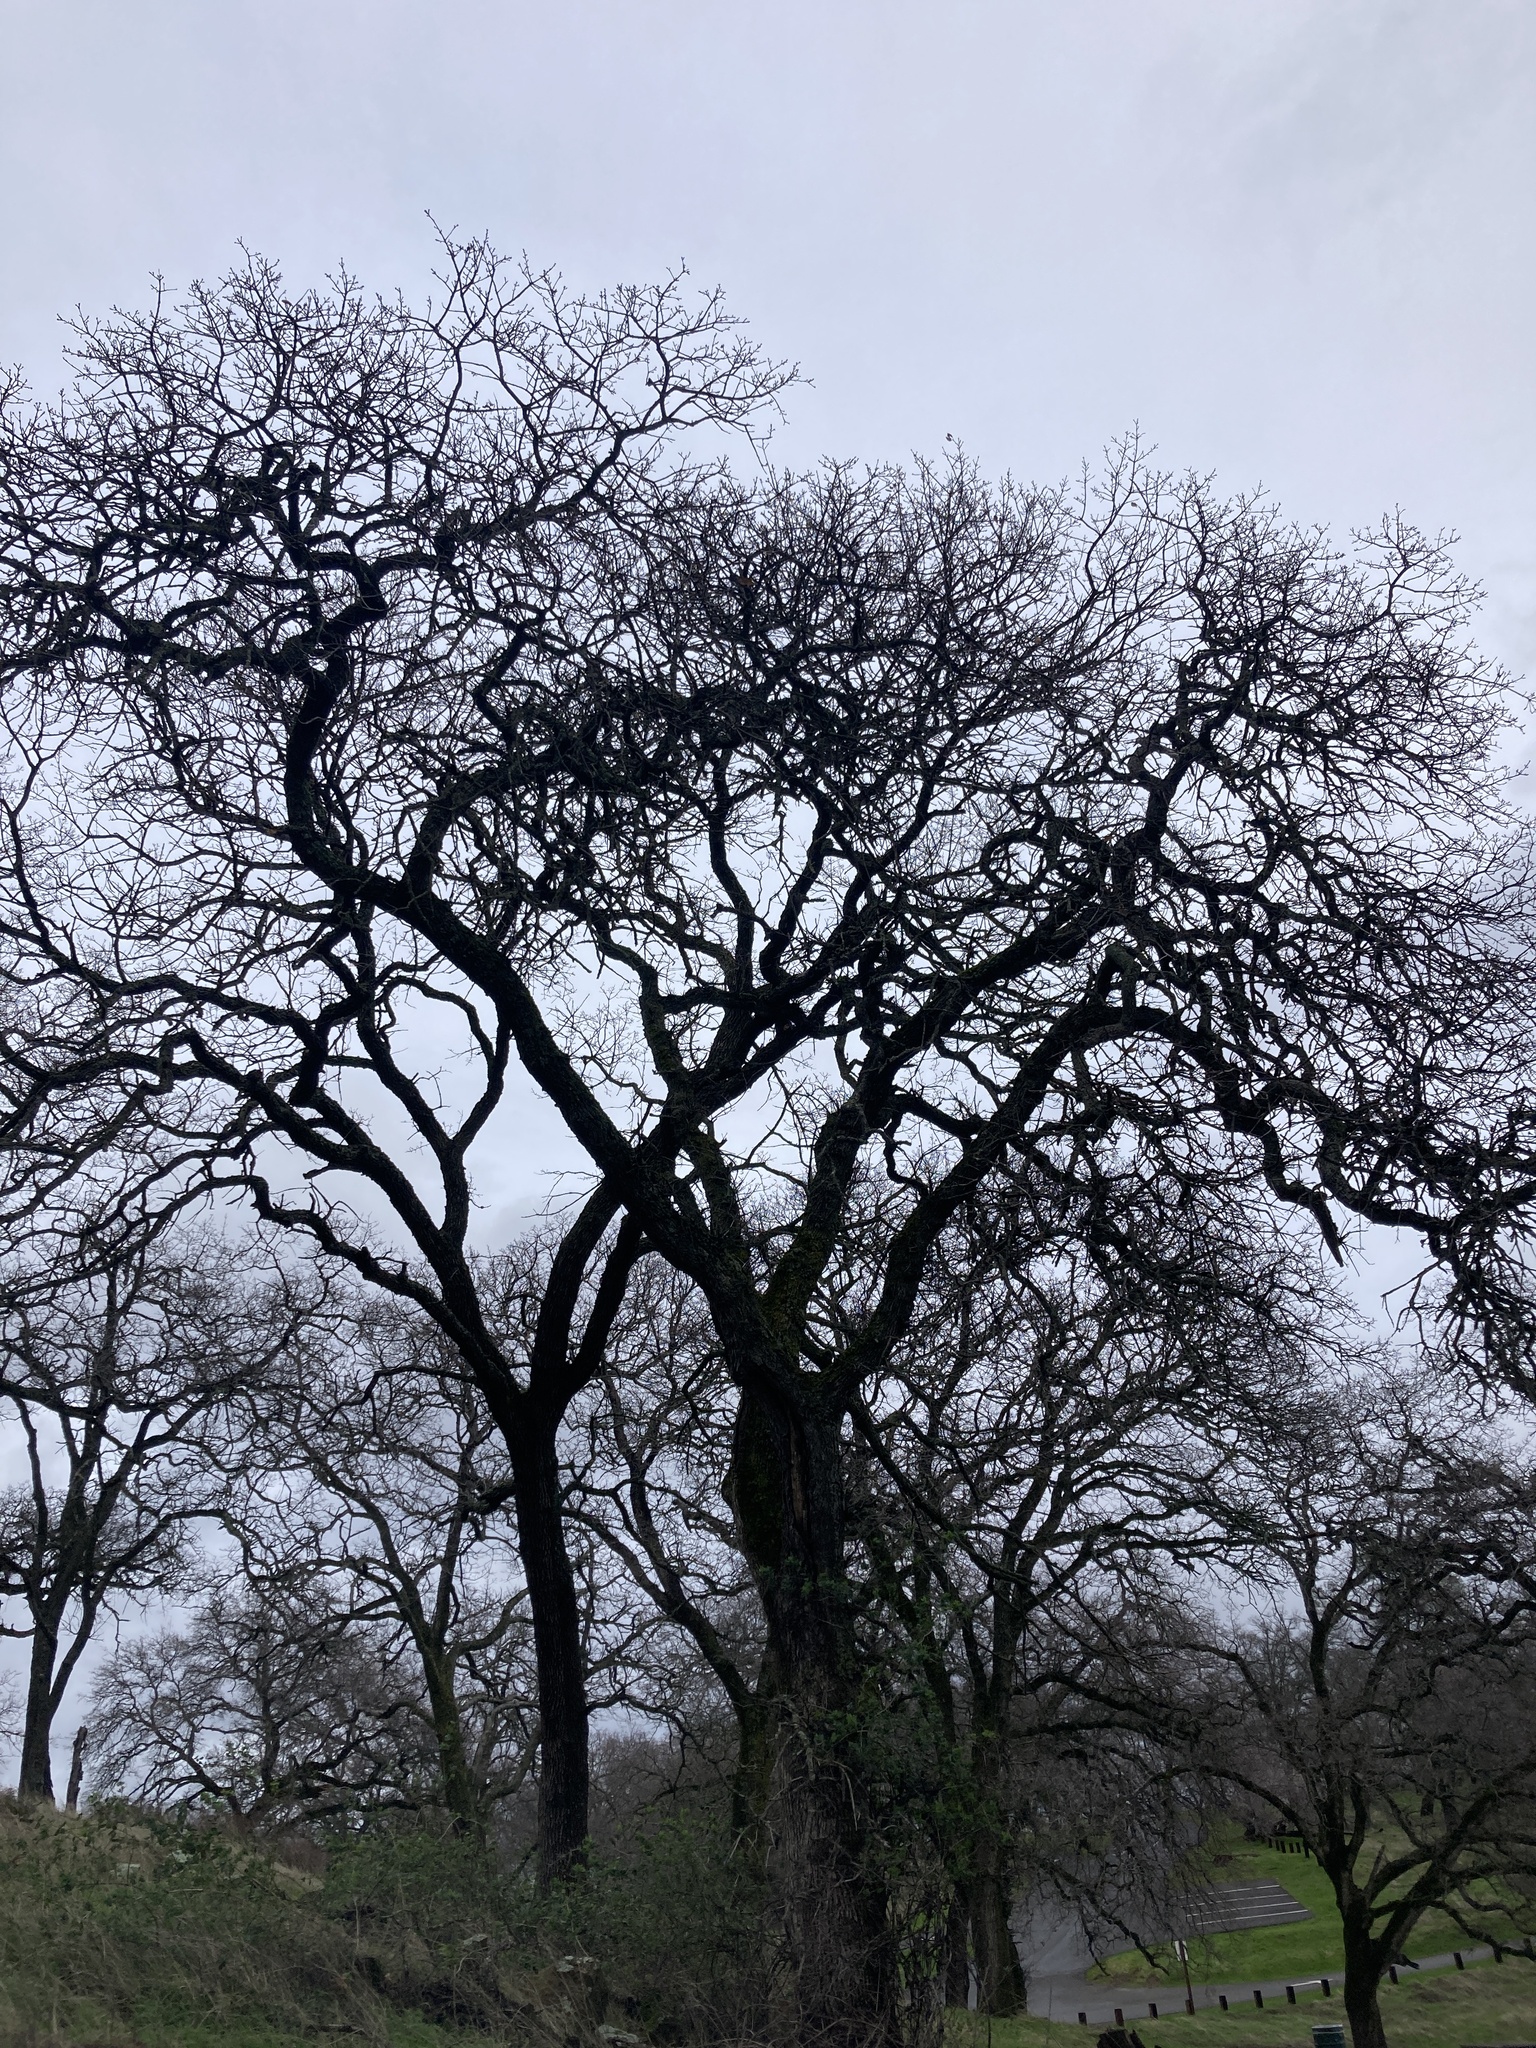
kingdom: Plantae
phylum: Tracheophyta
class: Magnoliopsida
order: Fagales
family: Fagaceae
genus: Quercus
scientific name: Quercus douglasii
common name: Blue oak
